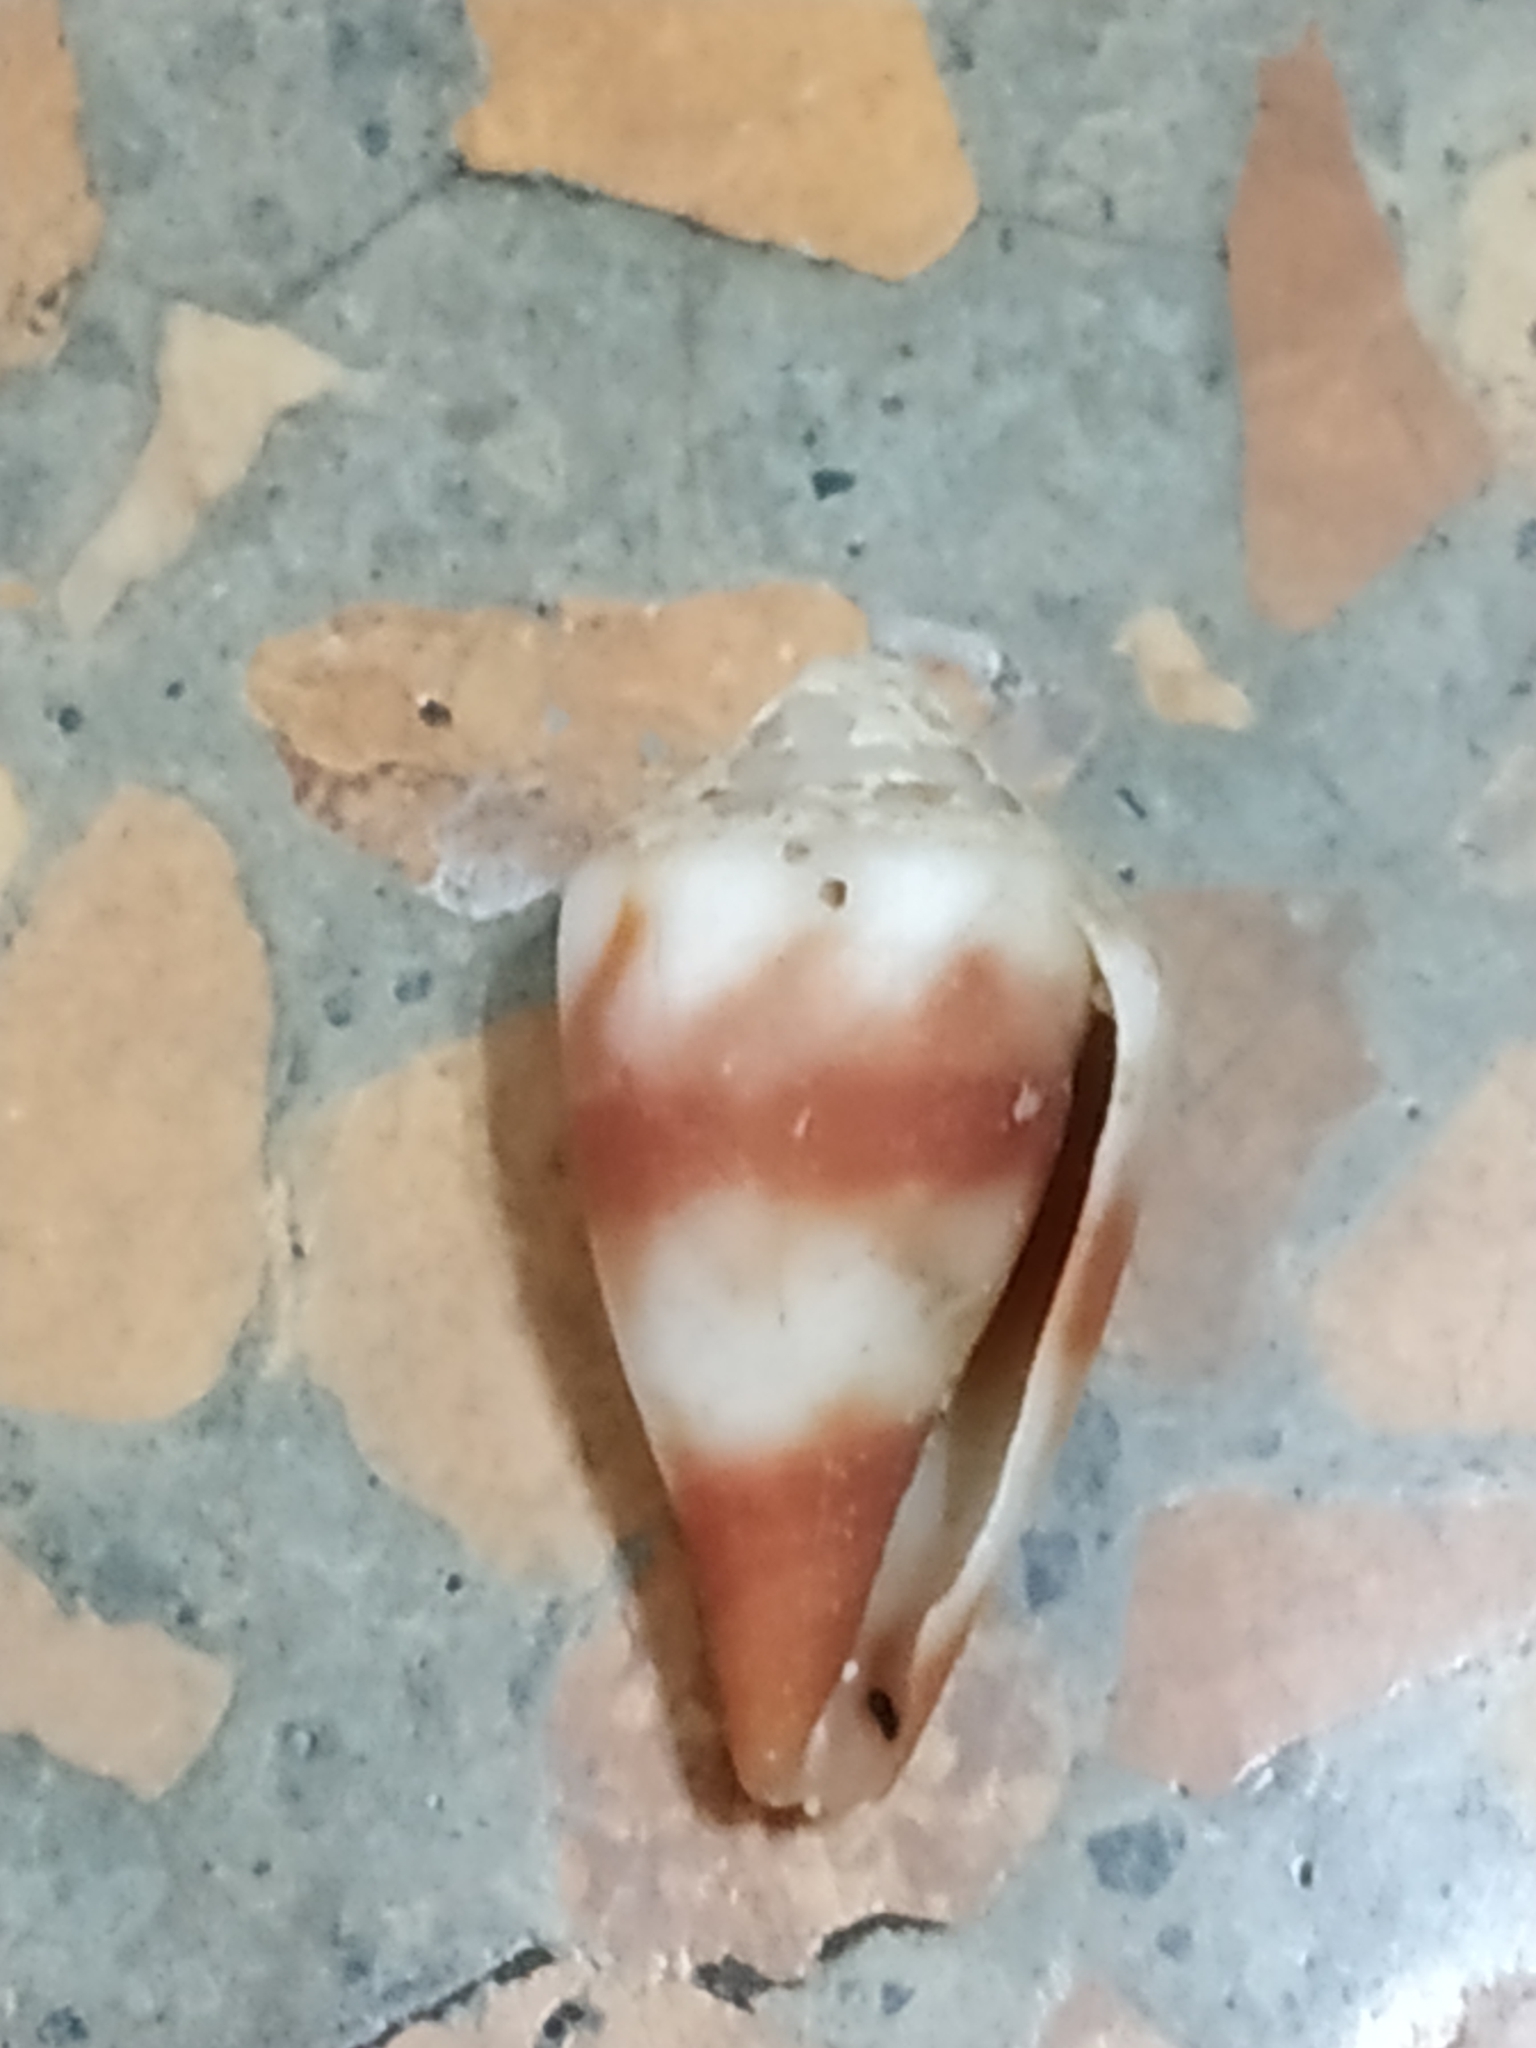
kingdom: Animalia
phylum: Mollusca
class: Gastropoda
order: Neogastropoda
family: Conidae
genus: Conus
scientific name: Conus miles
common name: Soldier cone
